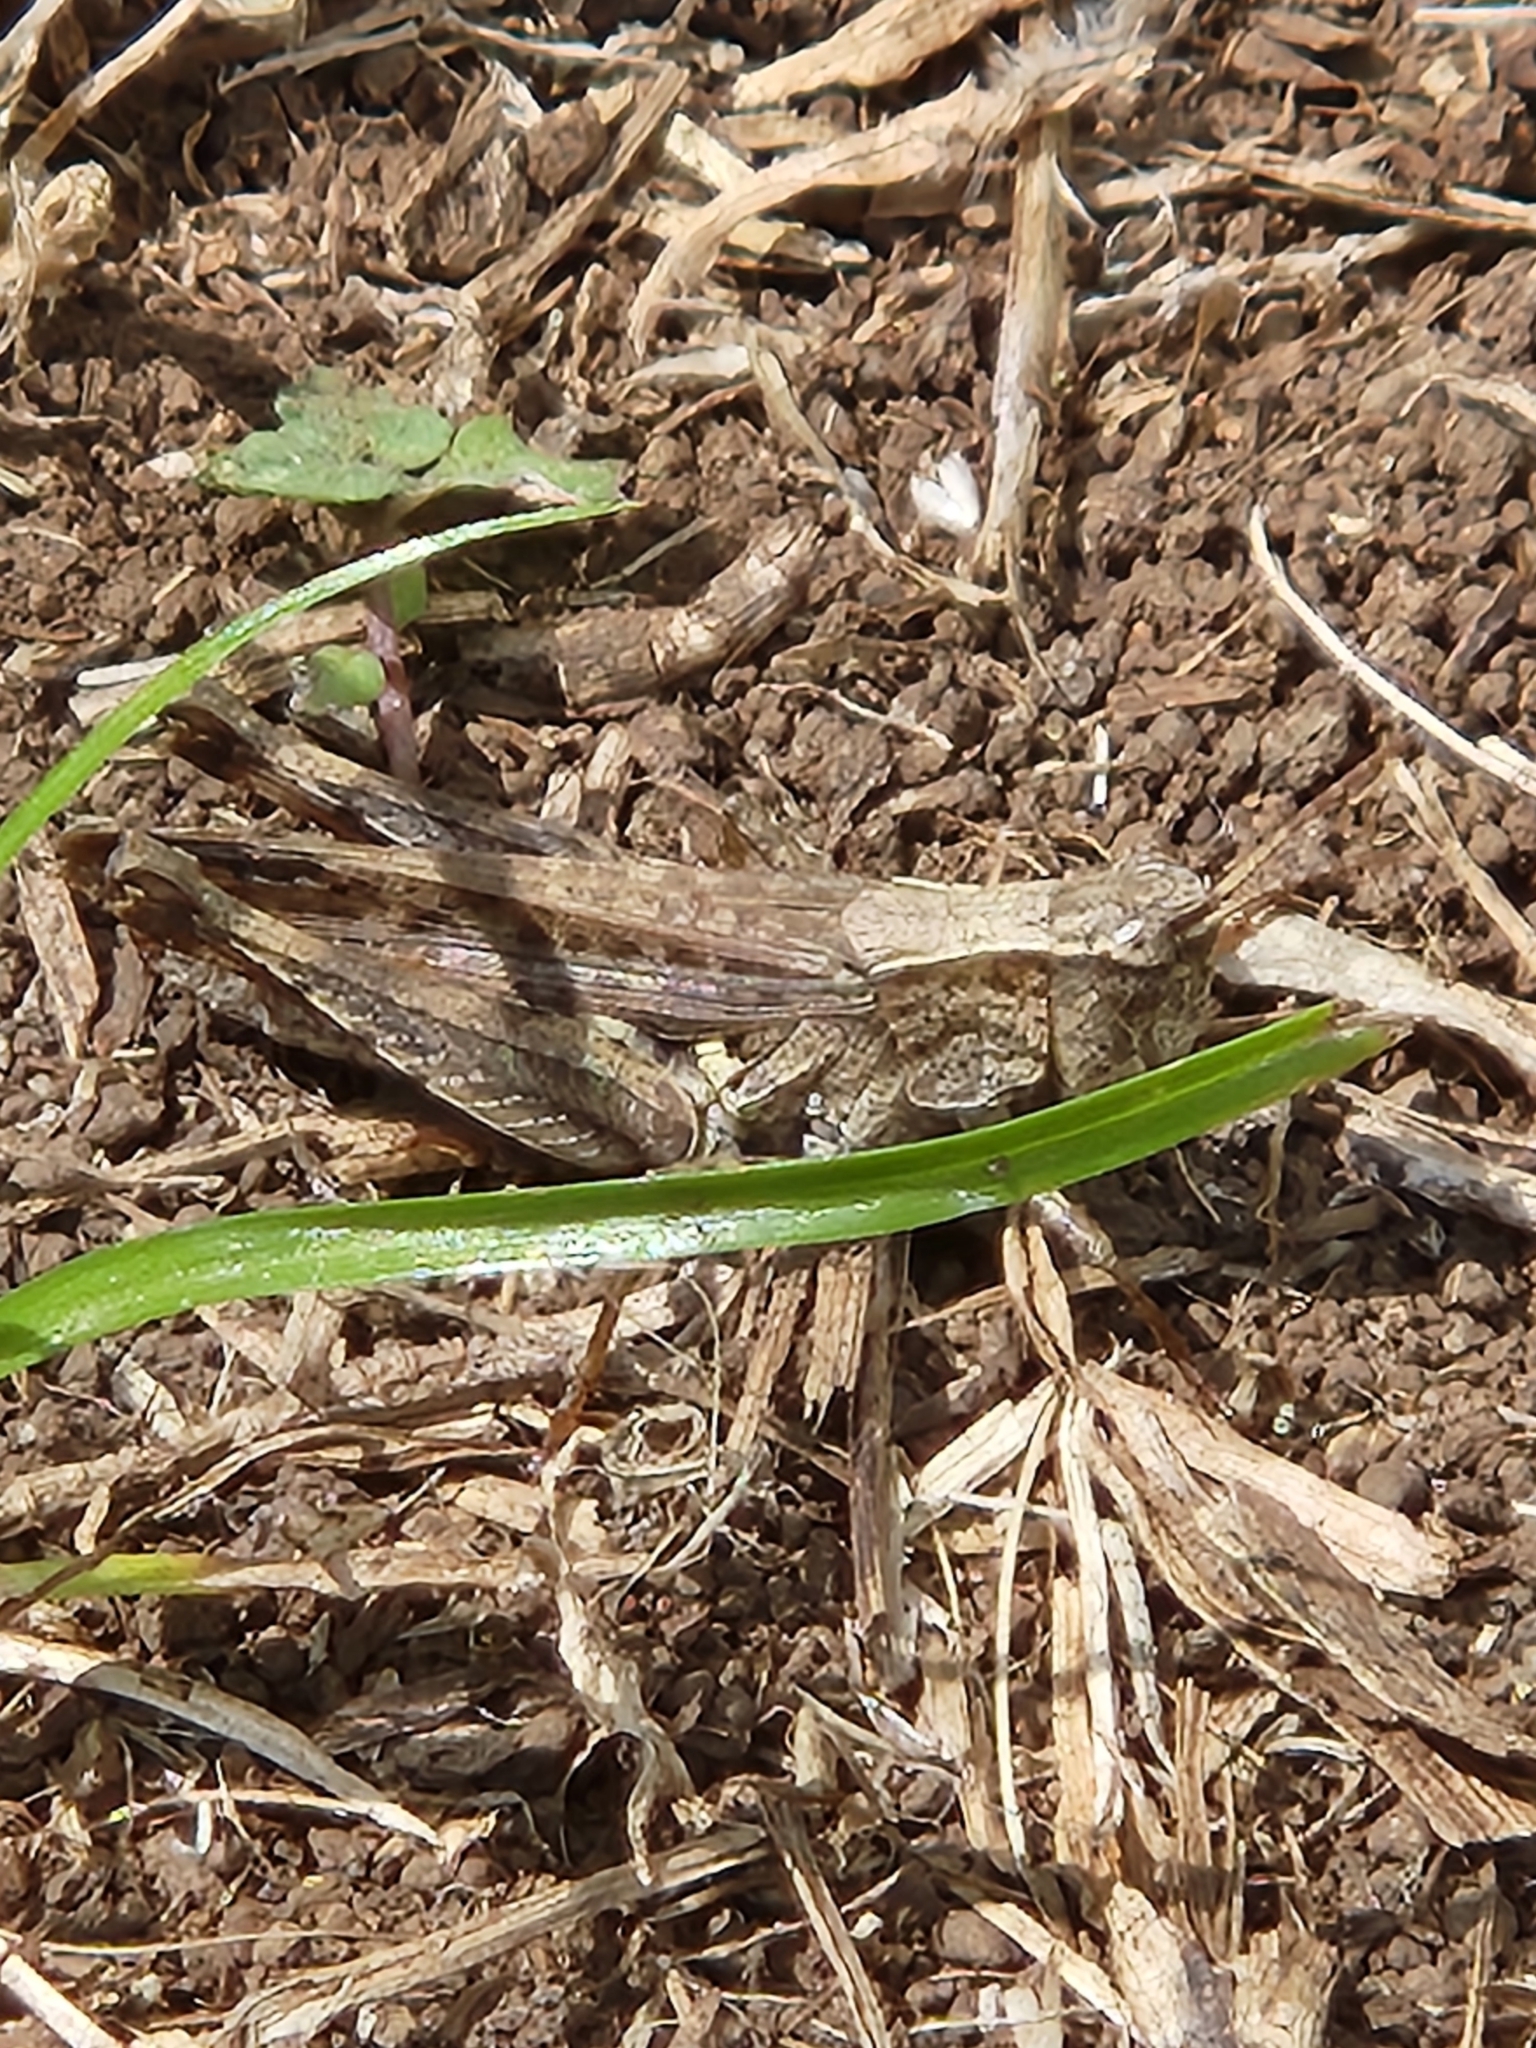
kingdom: Animalia
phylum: Arthropoda
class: Insecta
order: Orthoptera
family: Acrididae
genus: Orphulella
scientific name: Orphulella punctata
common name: Slant-faced grasshopper
